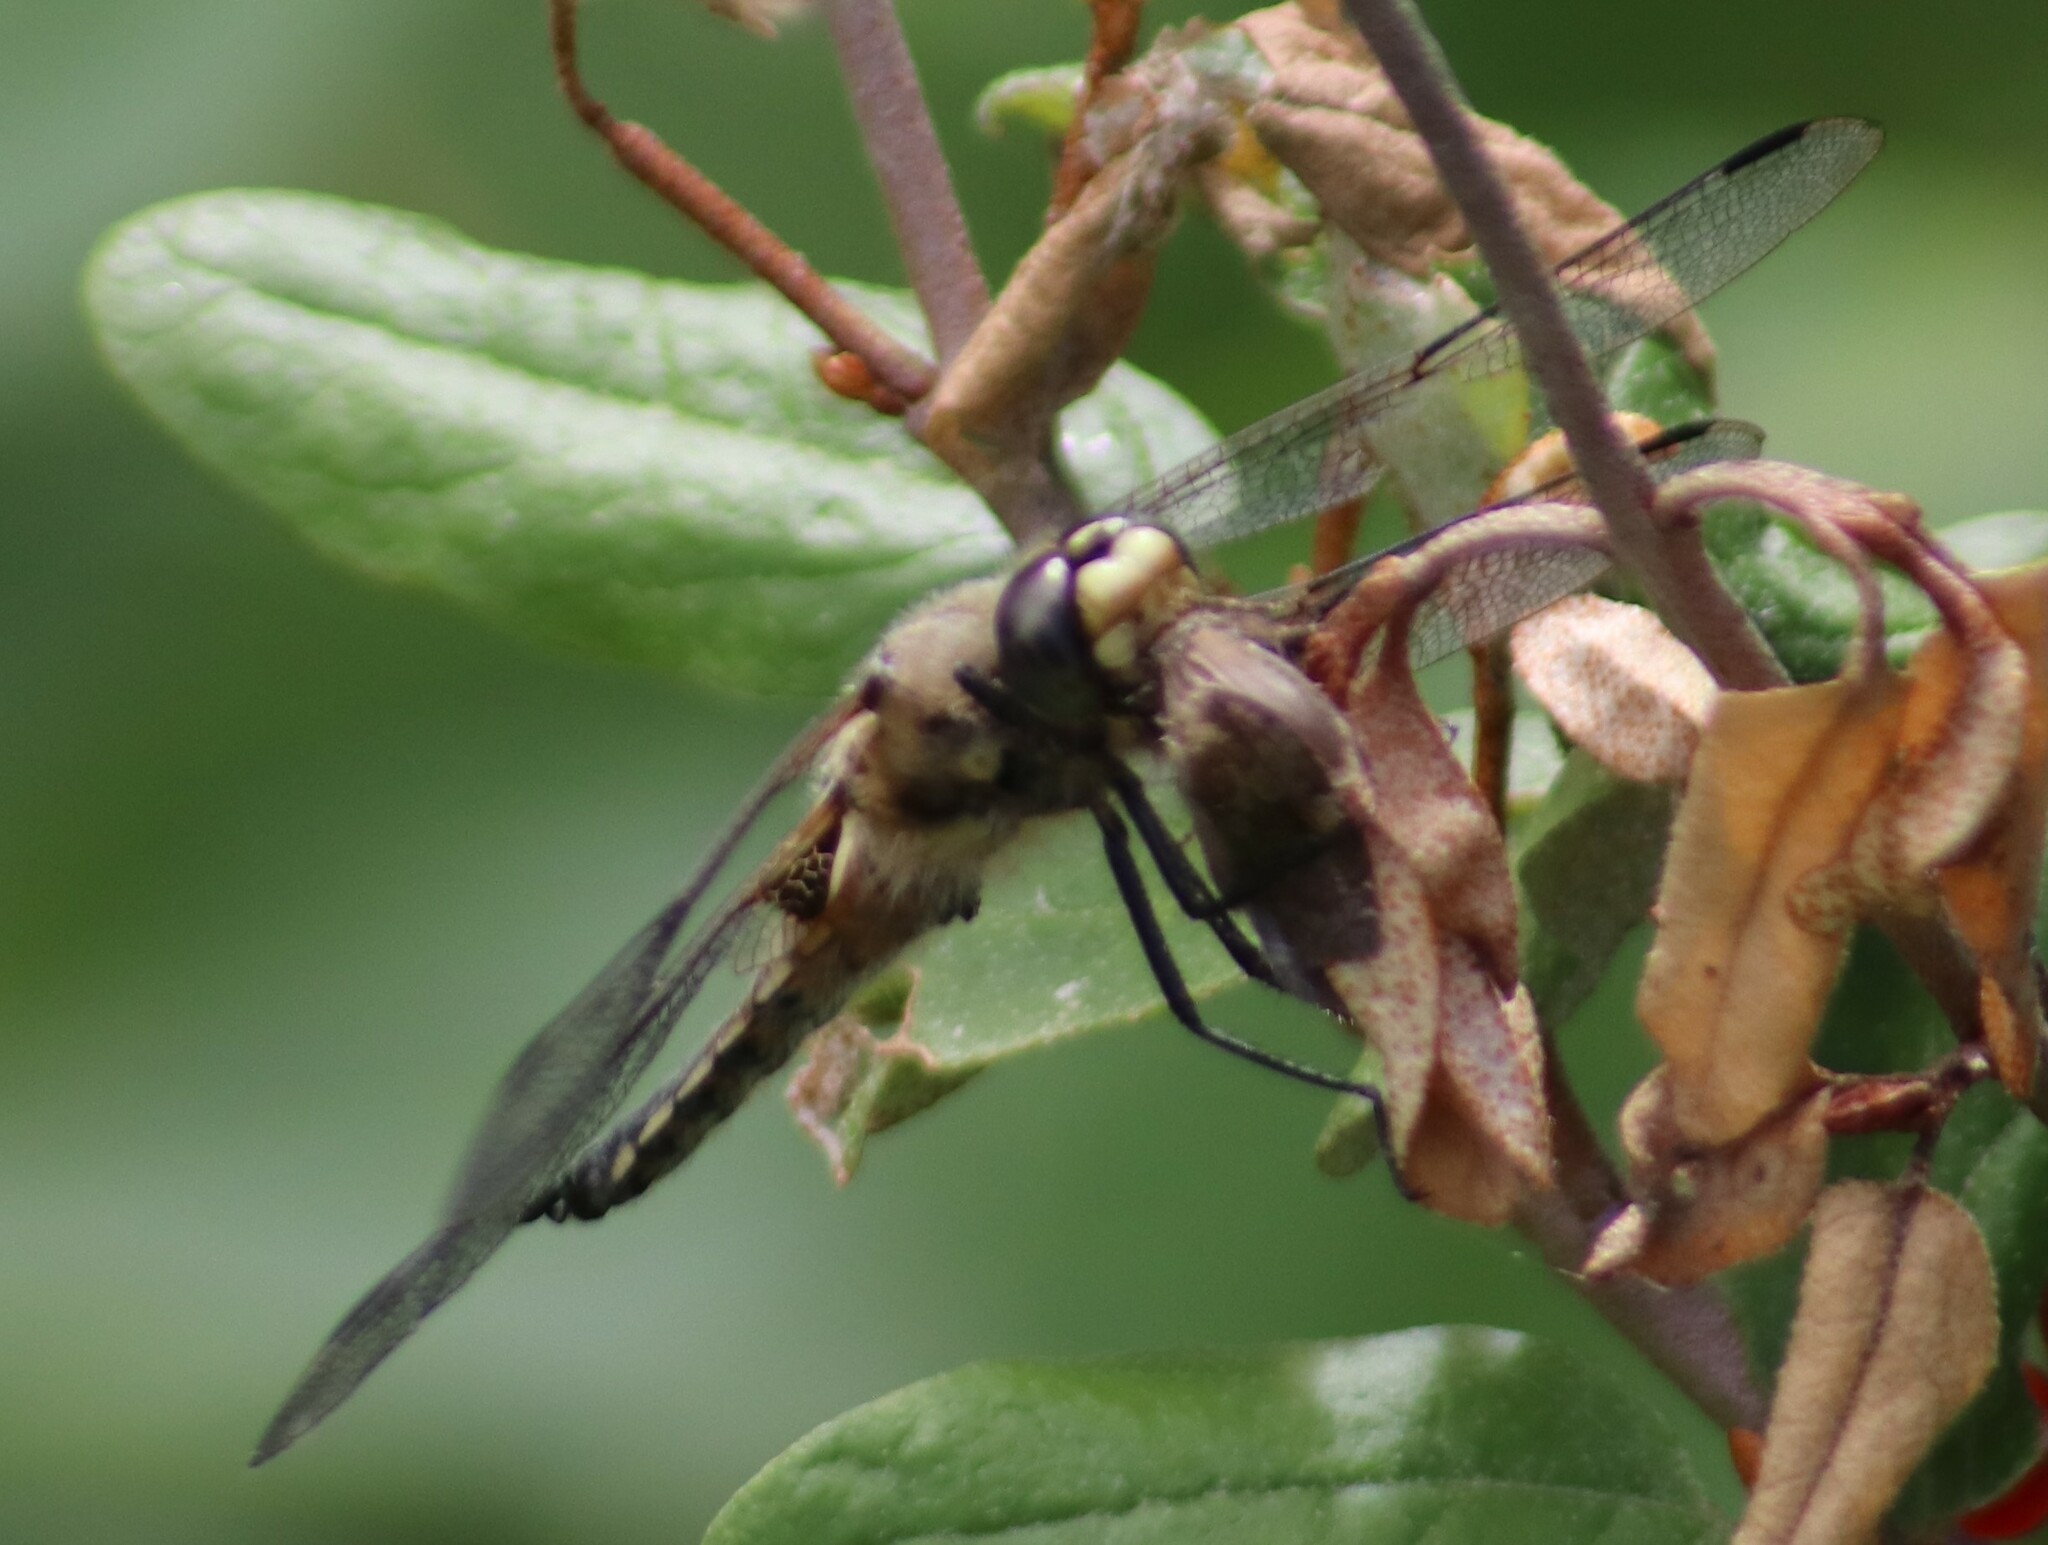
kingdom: Animalia
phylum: Arthropoda
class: Insecta
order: Odonata
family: Libellulidae
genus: Libellula
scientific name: Libellula quadrimaculata
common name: Four-spotted chaser
